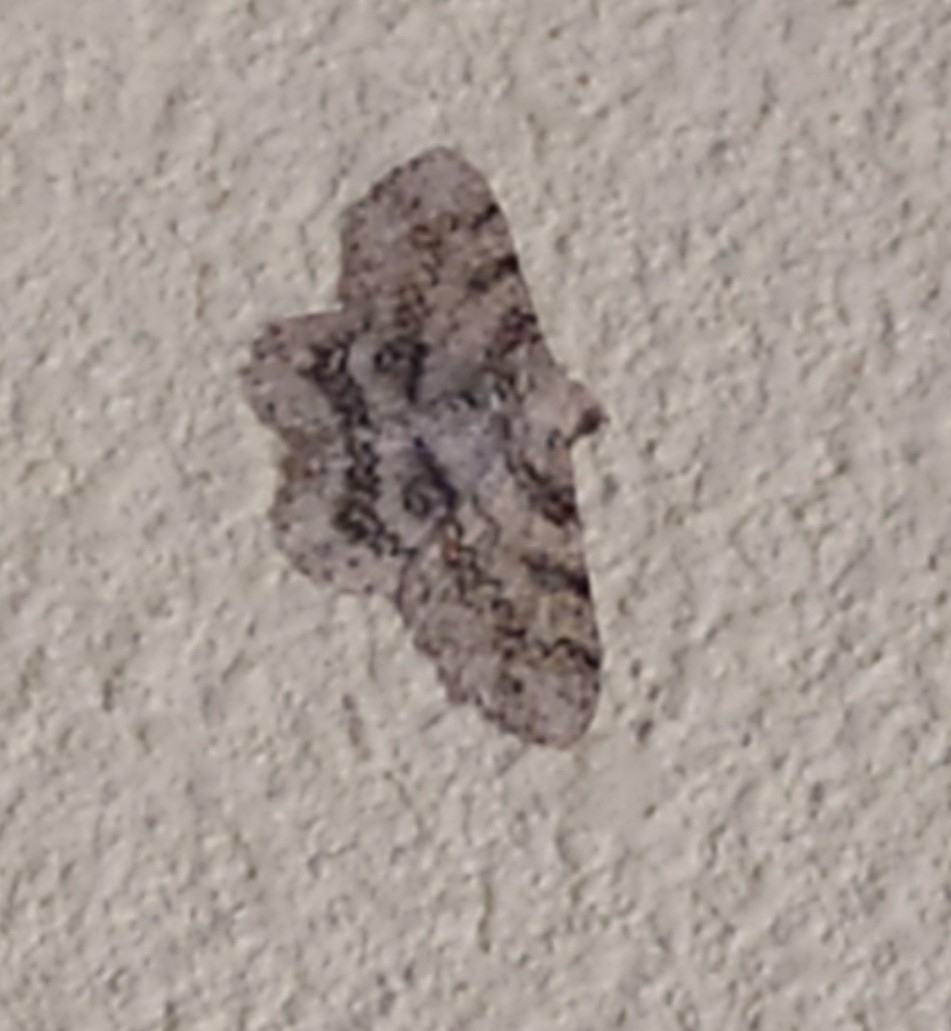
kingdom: Animalia
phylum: Arthropoda
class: Insecta
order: Lepidoptera
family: Geometridae
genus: Ascotis
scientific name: Ascotis selenaria
